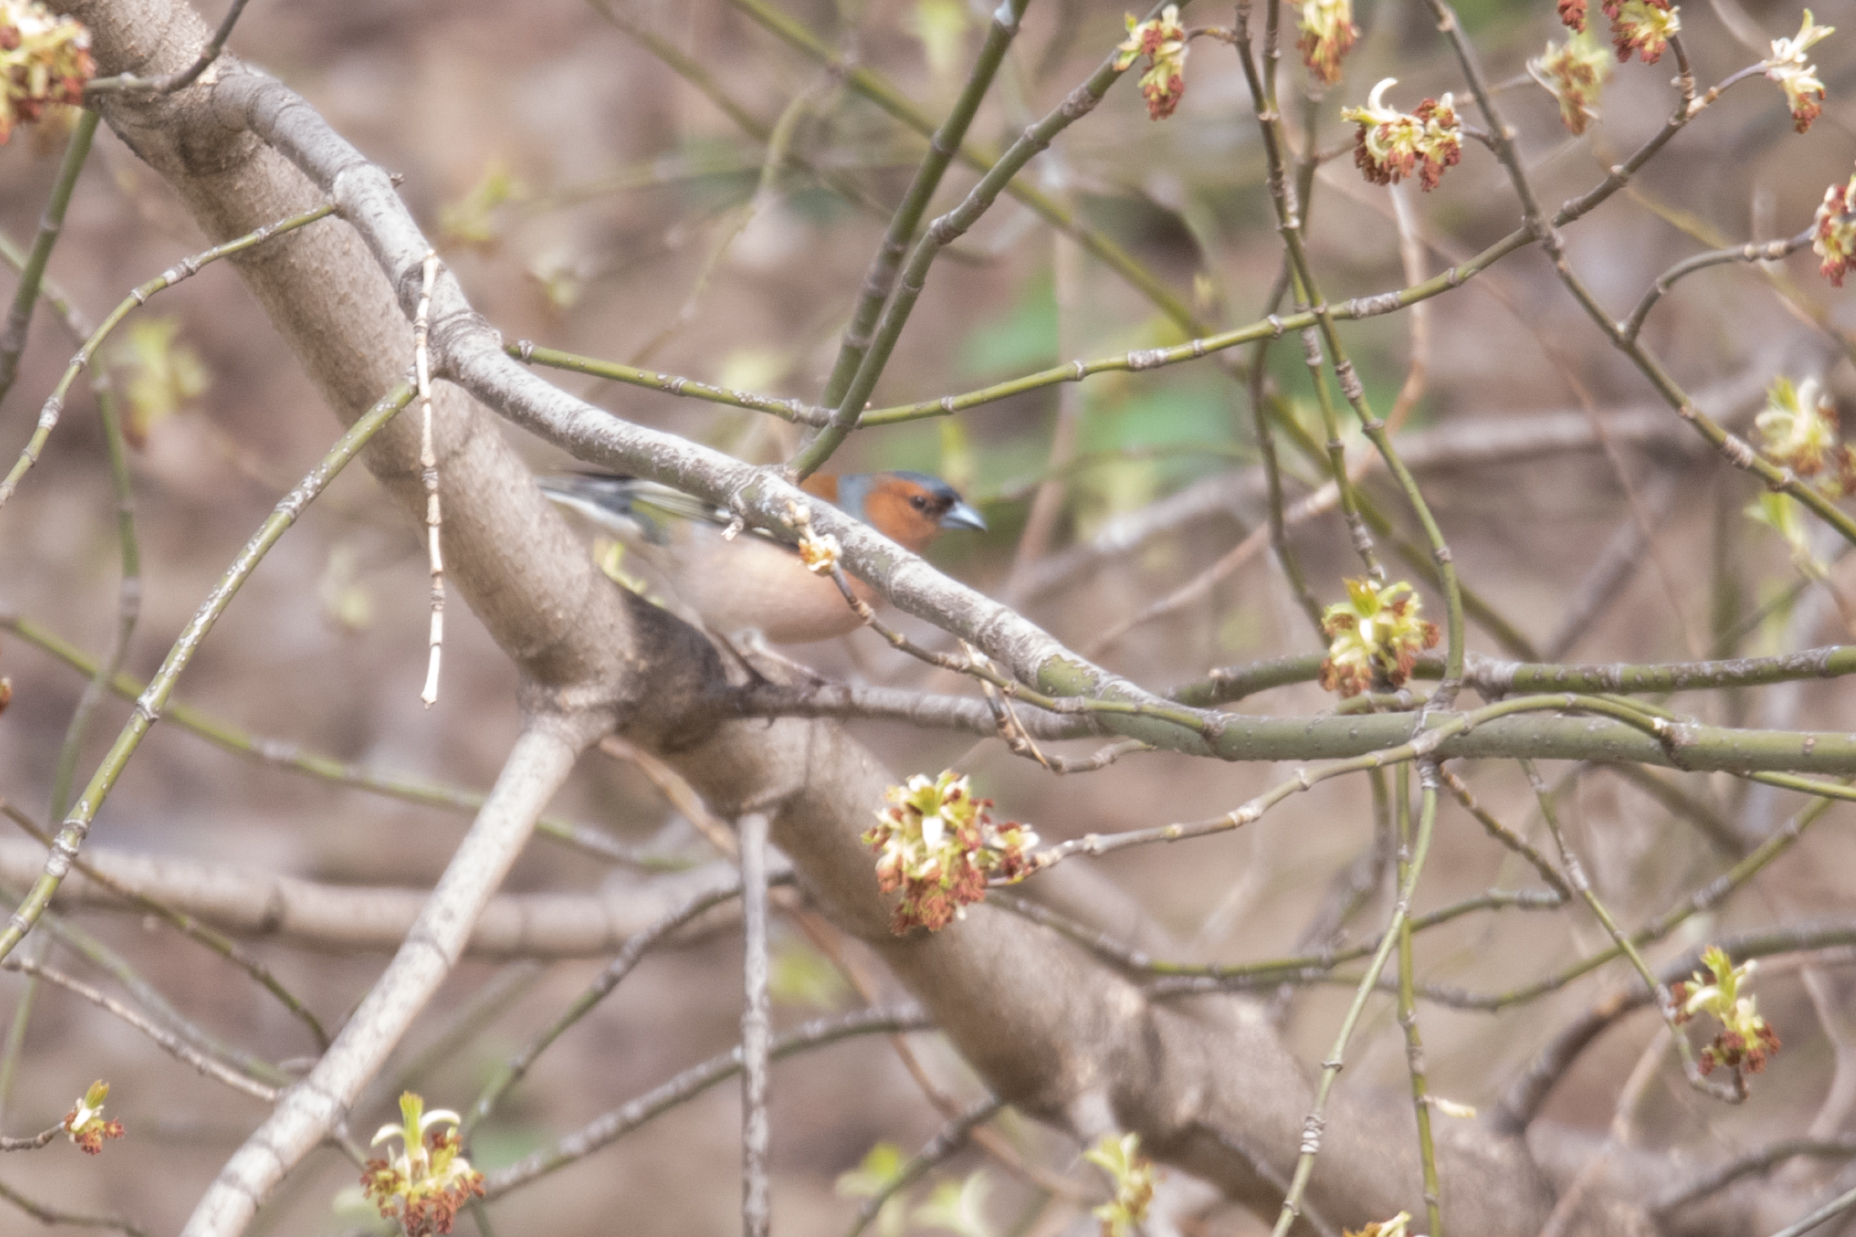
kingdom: Animalia
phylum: Chordata
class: Aves
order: Passeriformes
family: Fringillidae
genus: Fringilla
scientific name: Fringilla coelebs
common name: Common chaffinch
